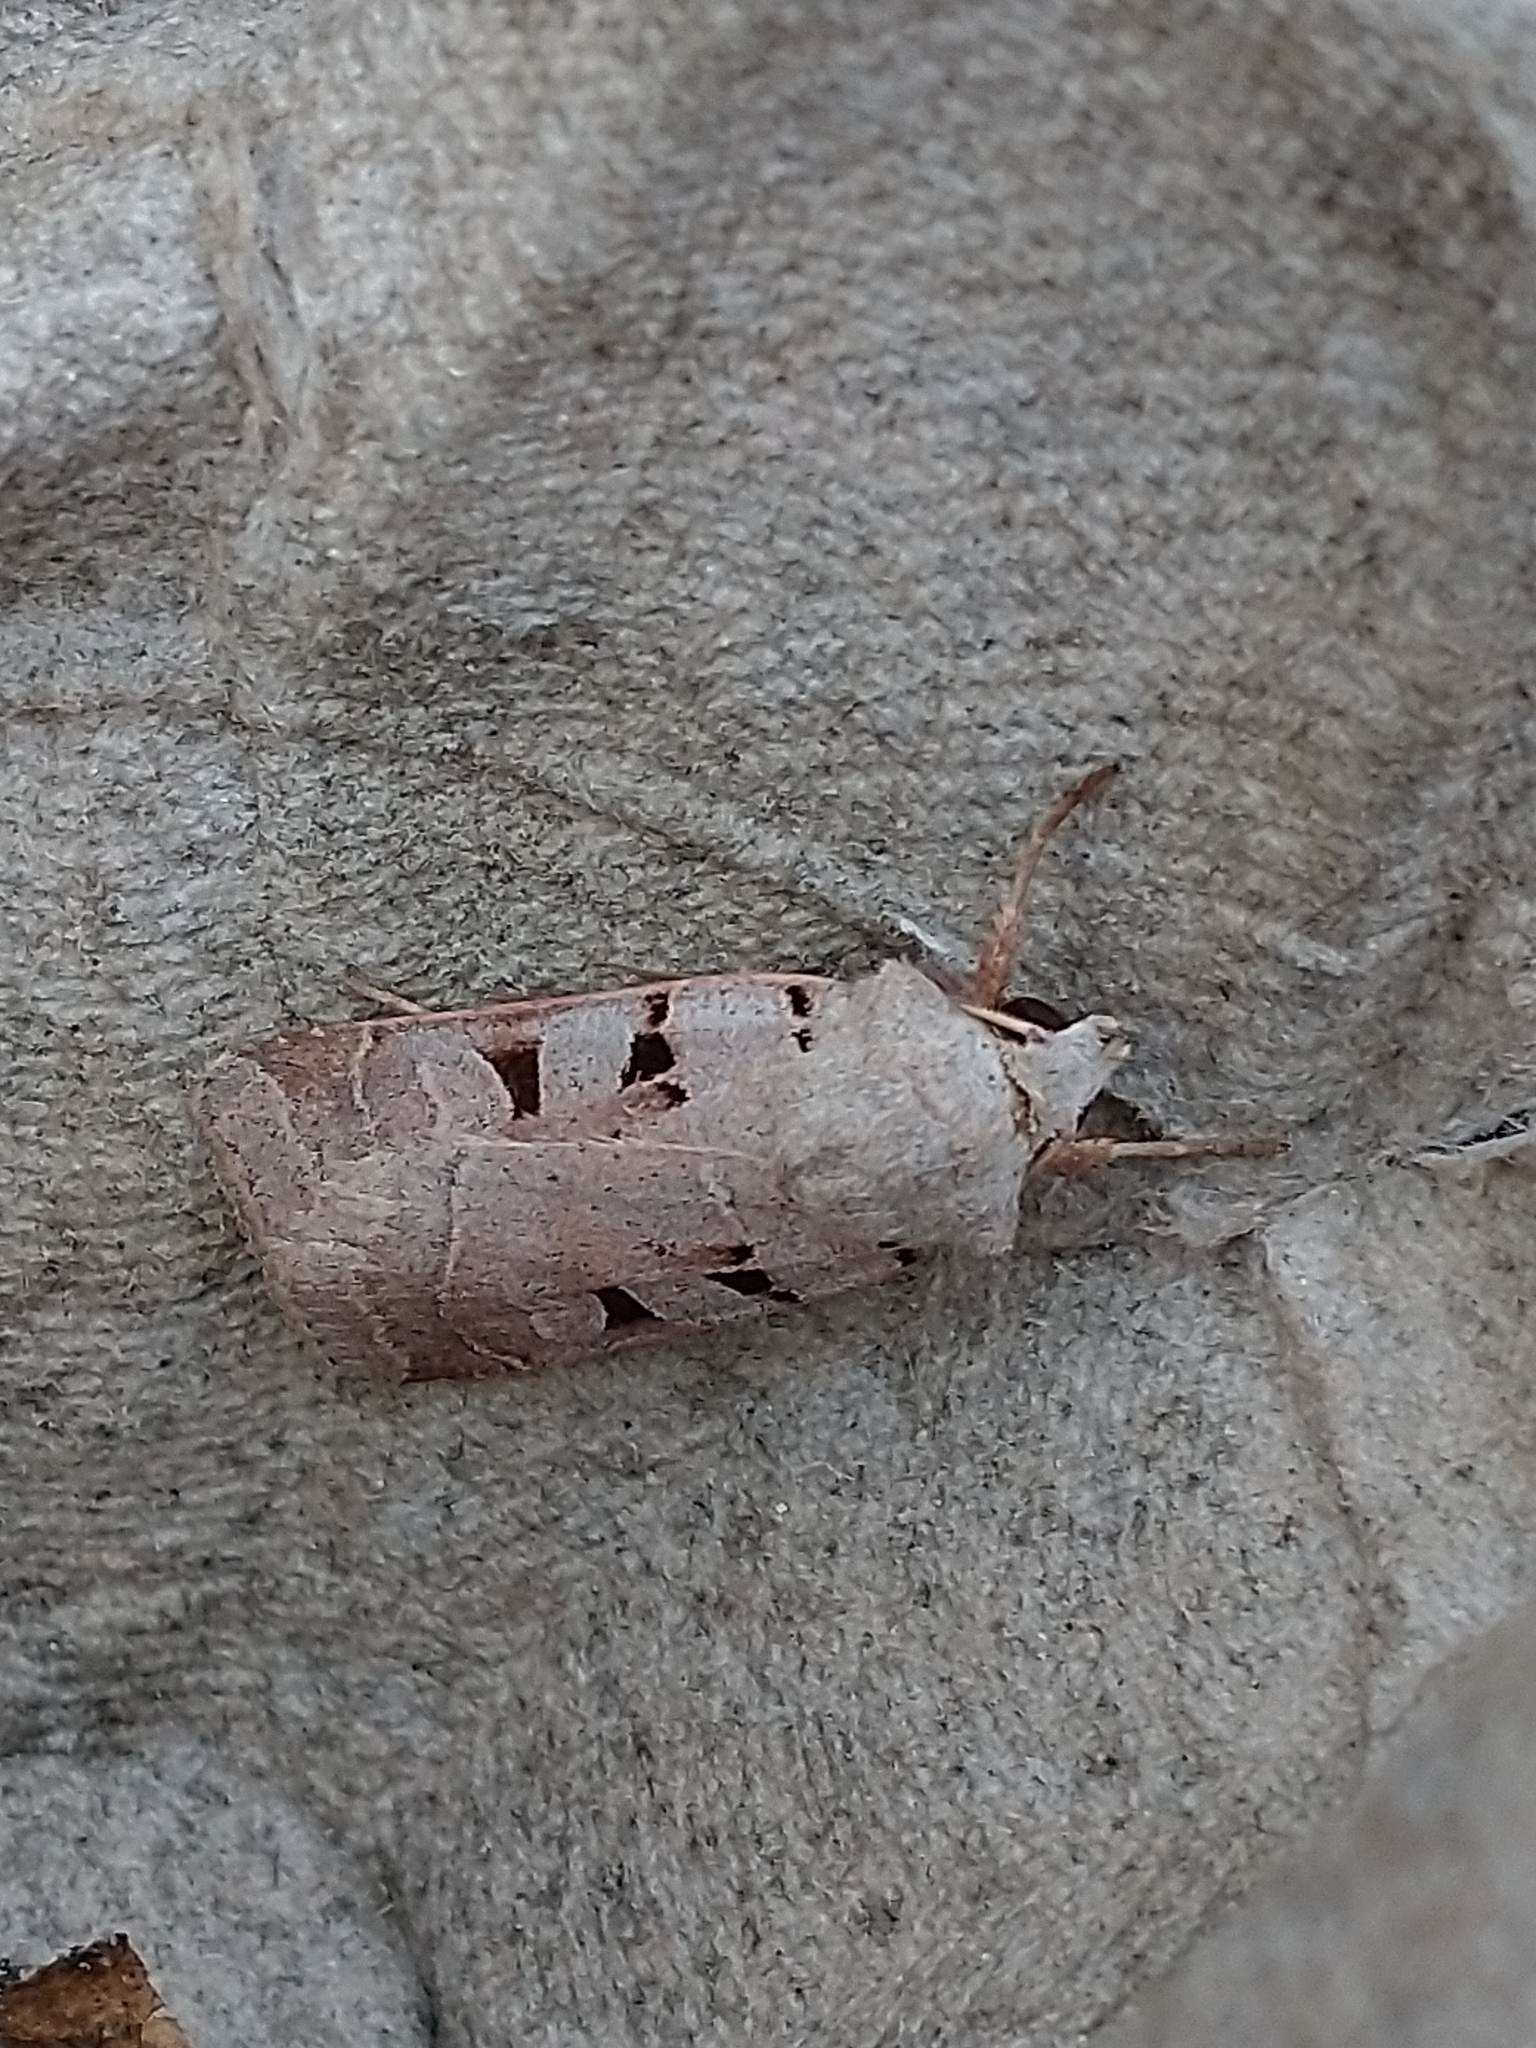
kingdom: Animalia
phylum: Arthropoda
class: Insecta
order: Lepidoptera
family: Noctuidae
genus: Eugnorisma
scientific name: Eugnorisma glareosa
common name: Autumnal rustic
